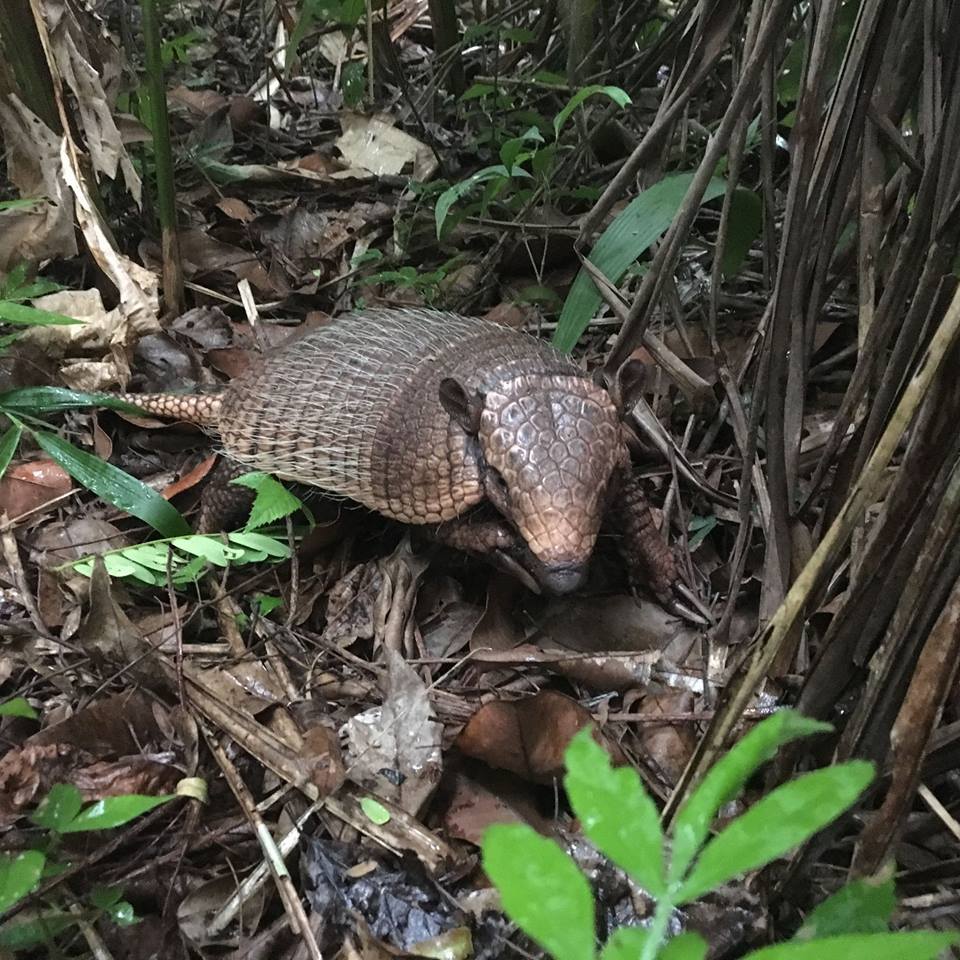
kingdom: Animalia
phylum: Chordata
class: Mammalia
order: Cingulata
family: Dasypodidae
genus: Euphractus
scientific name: Euphractus sexcinctus
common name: Six-banded armadillo
